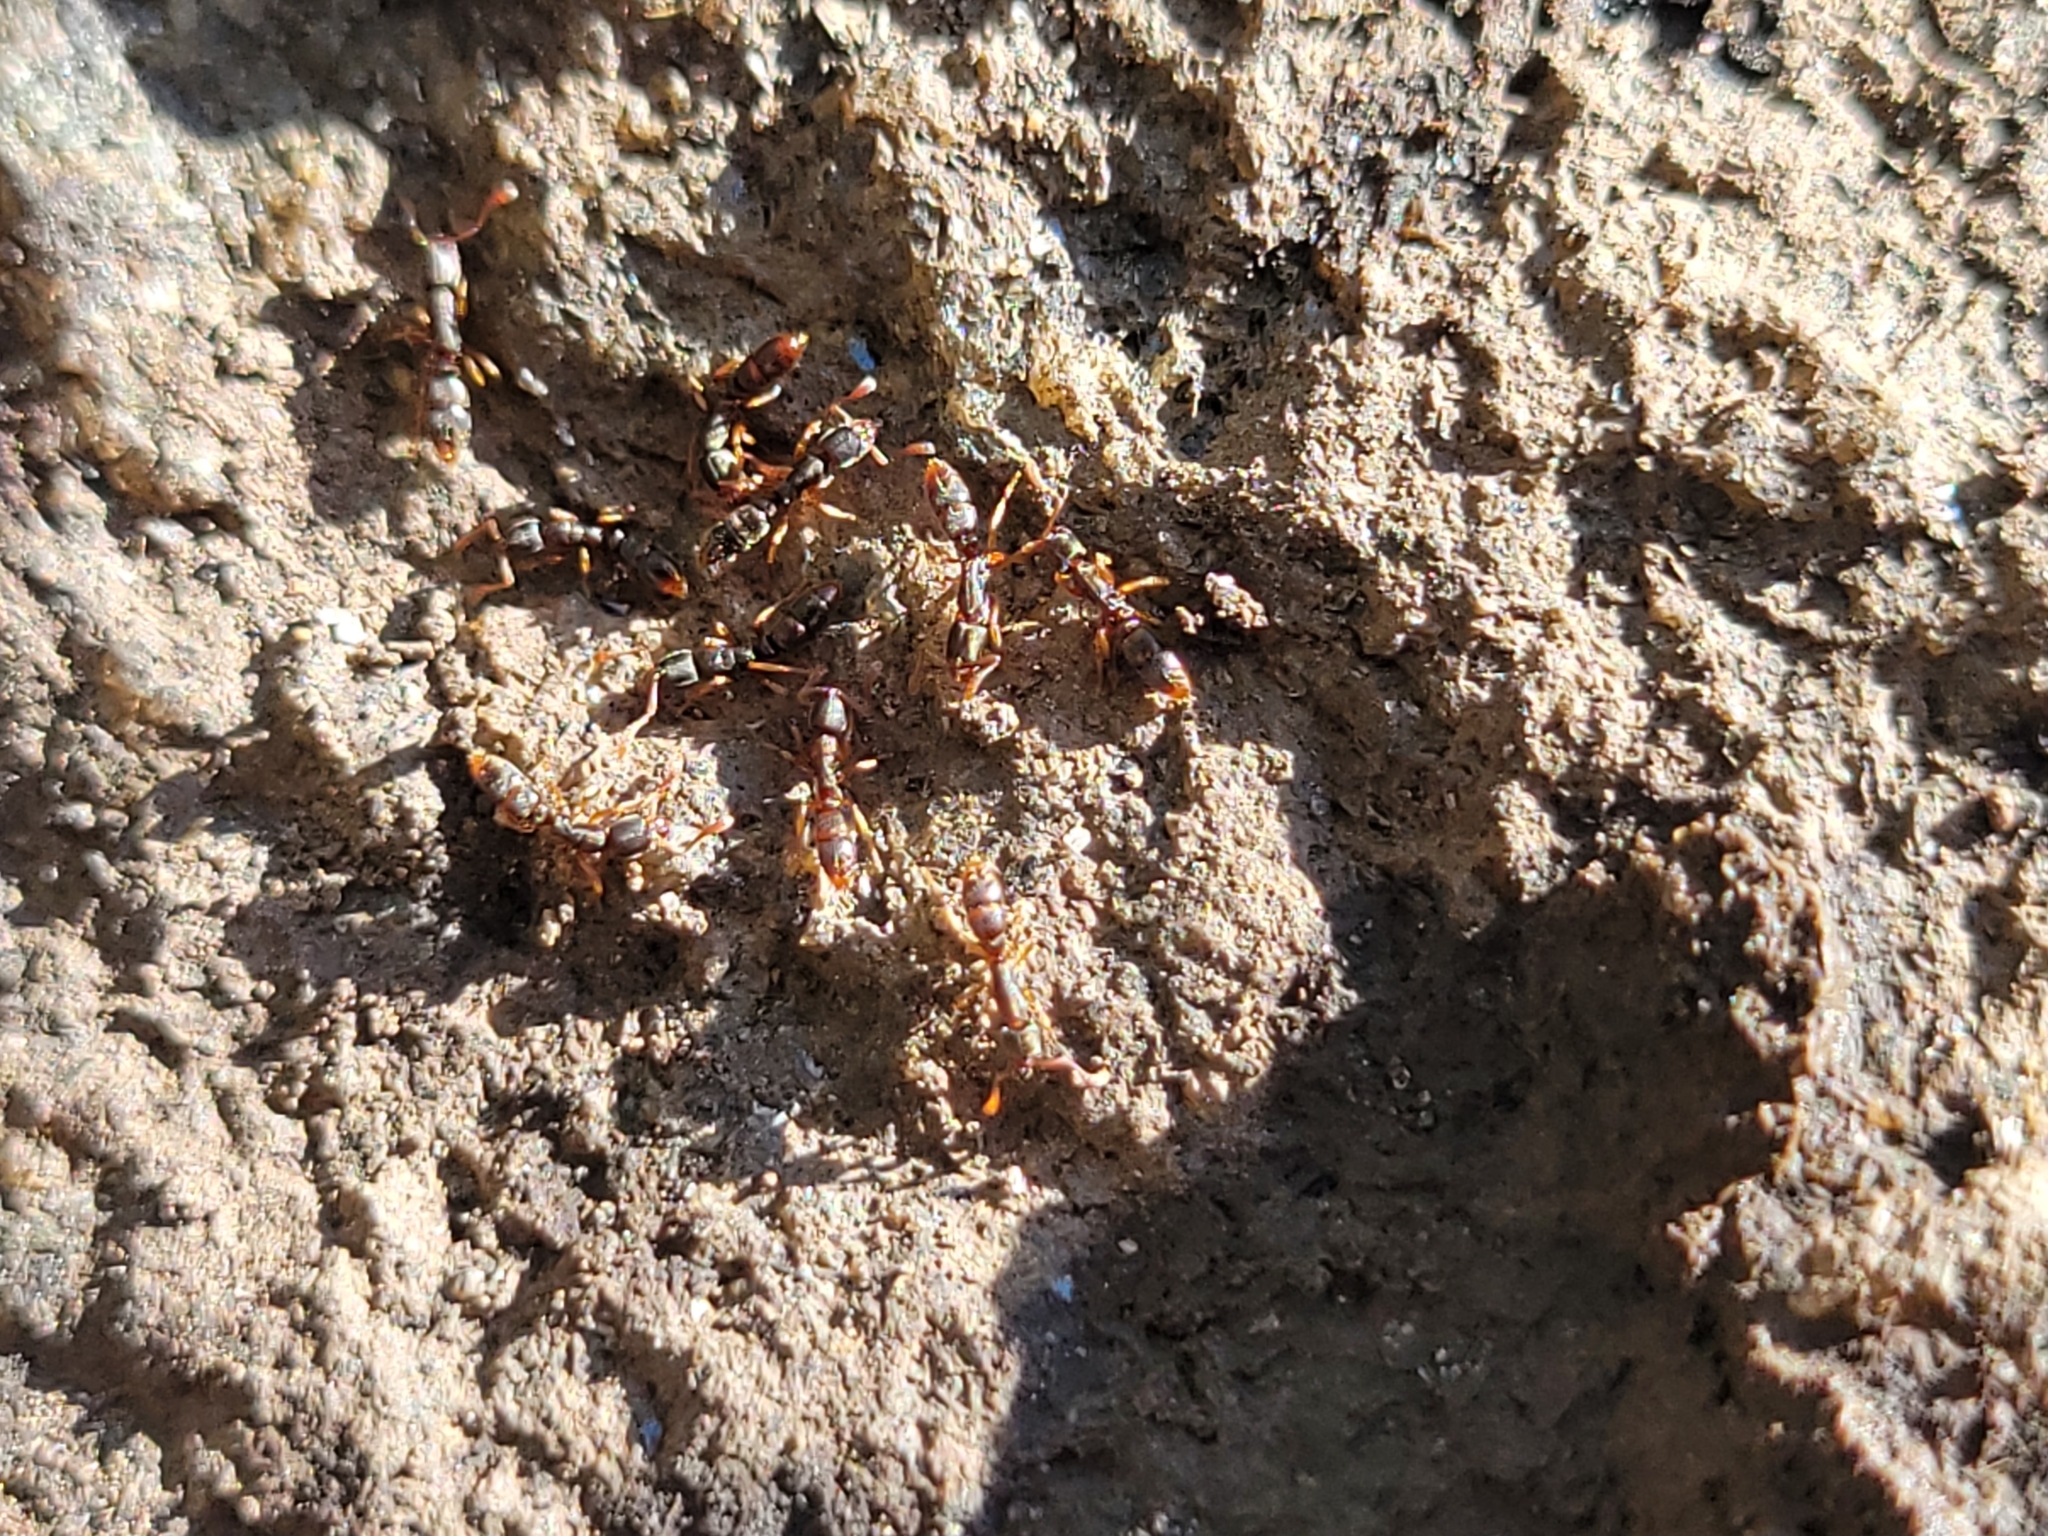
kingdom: Animalia
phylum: Arthropoda
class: Insecta
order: Hymenoptera
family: Formicidae
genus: Ponera
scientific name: Ponera pennsylvanica
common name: Pennsylvania ponera
